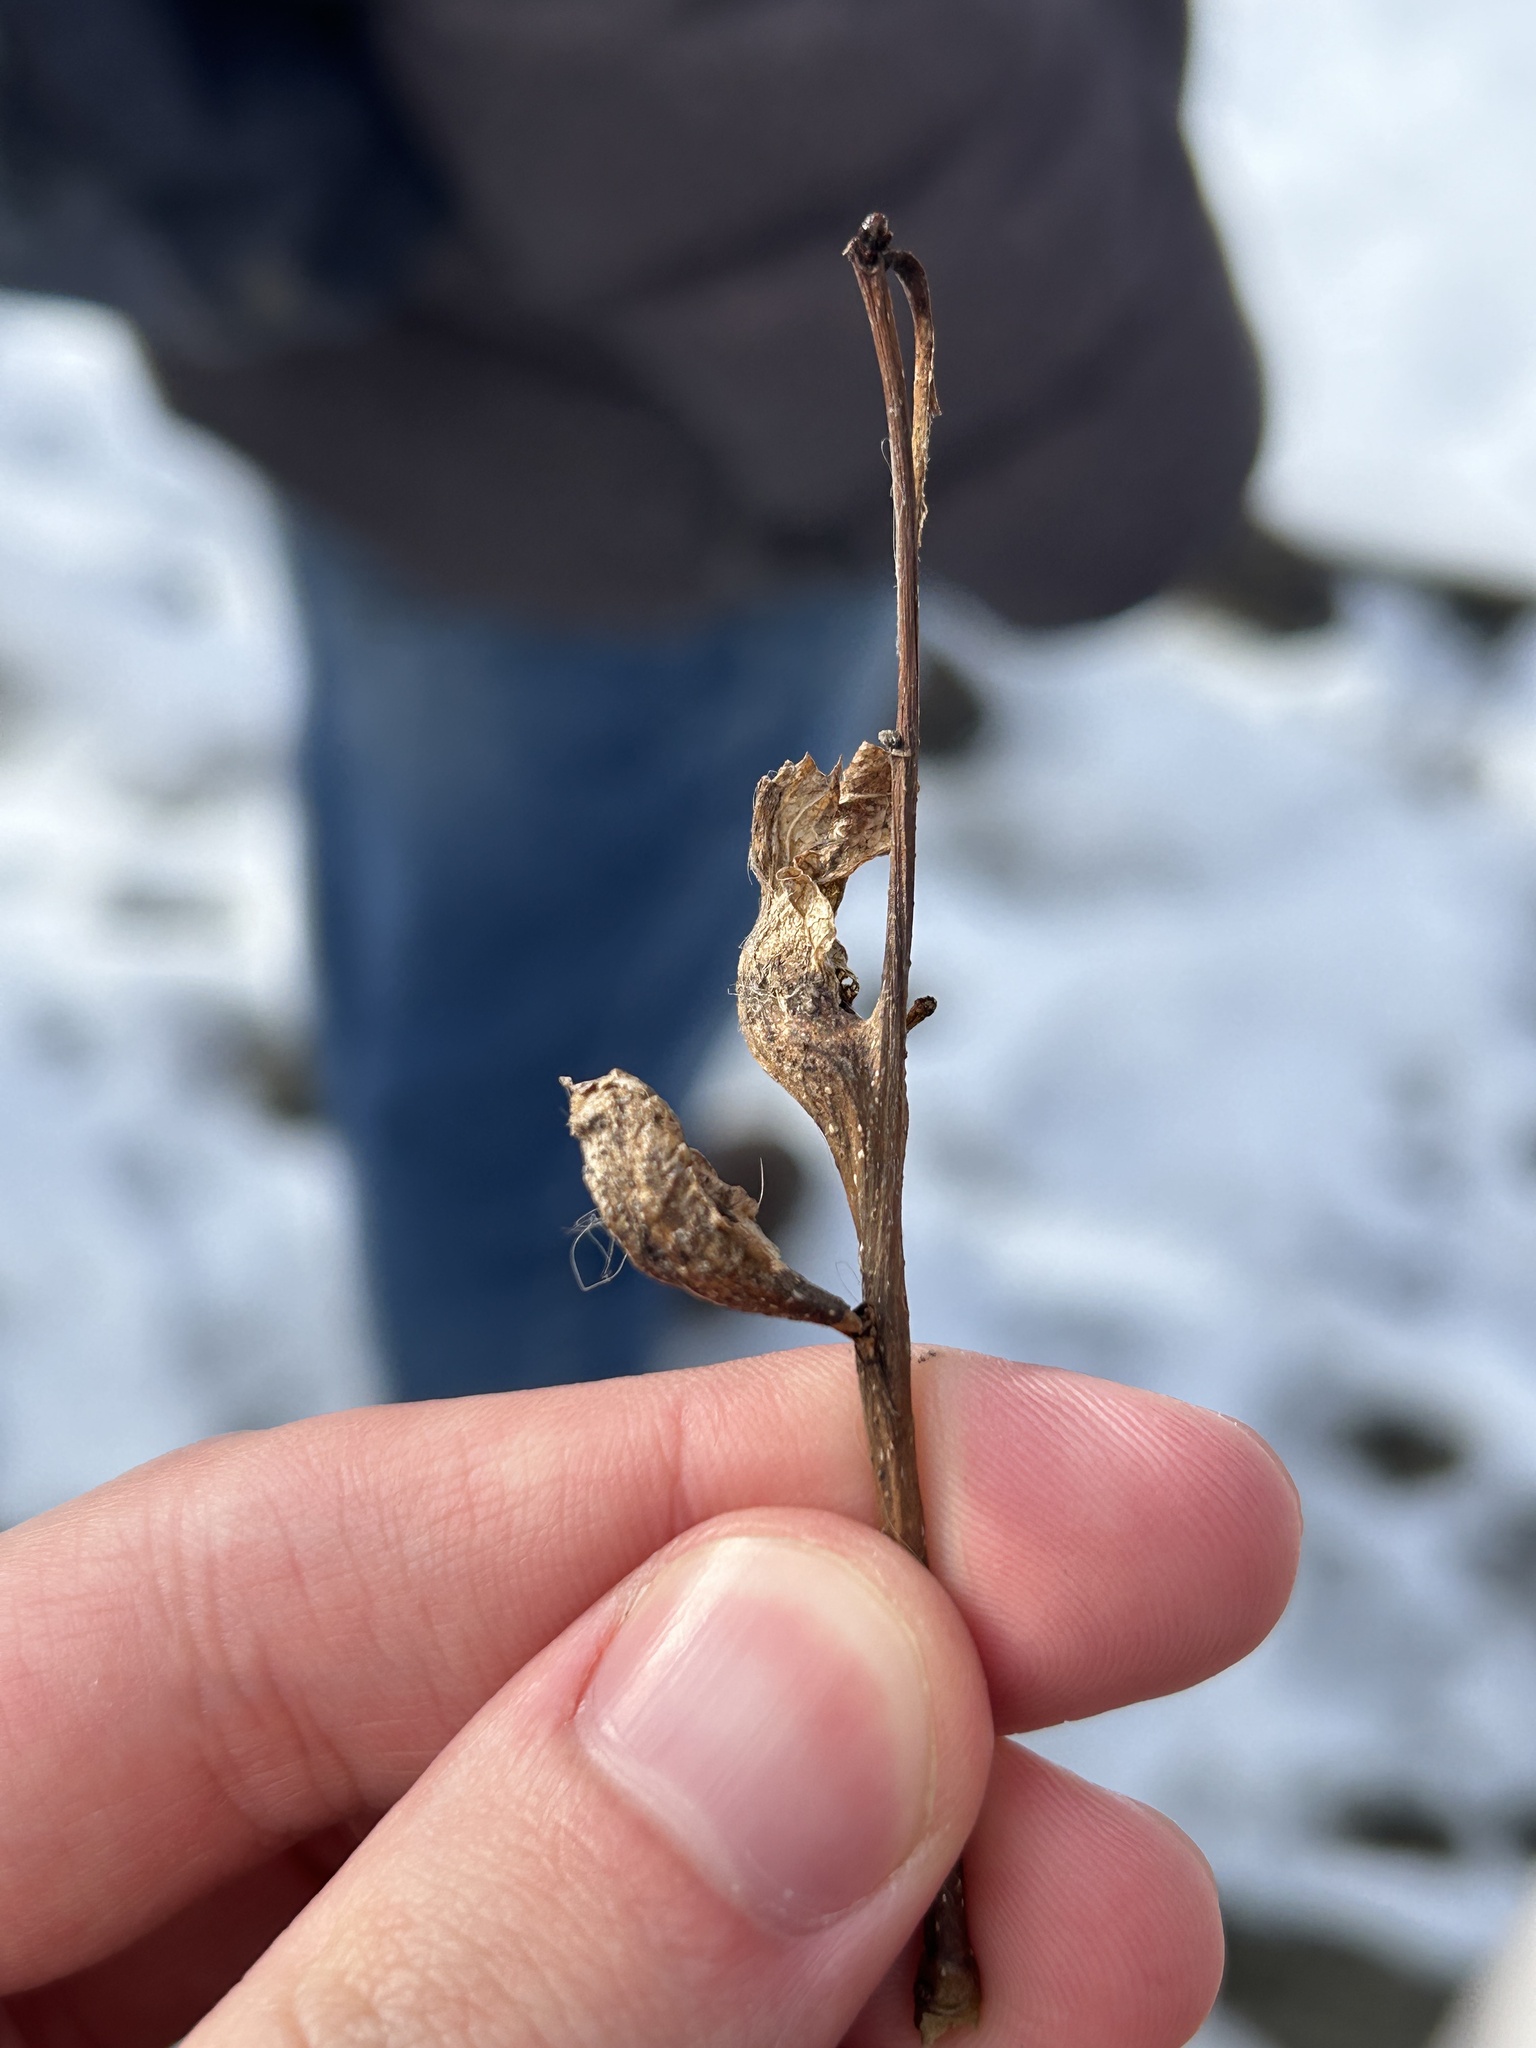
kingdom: Animalia
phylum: Arthropoda
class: Insecta
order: Hymenoptera
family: Cynipidae
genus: Dryocosmus
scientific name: Dryocosmus kuriphilus
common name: Asian chestnut gall wasp
